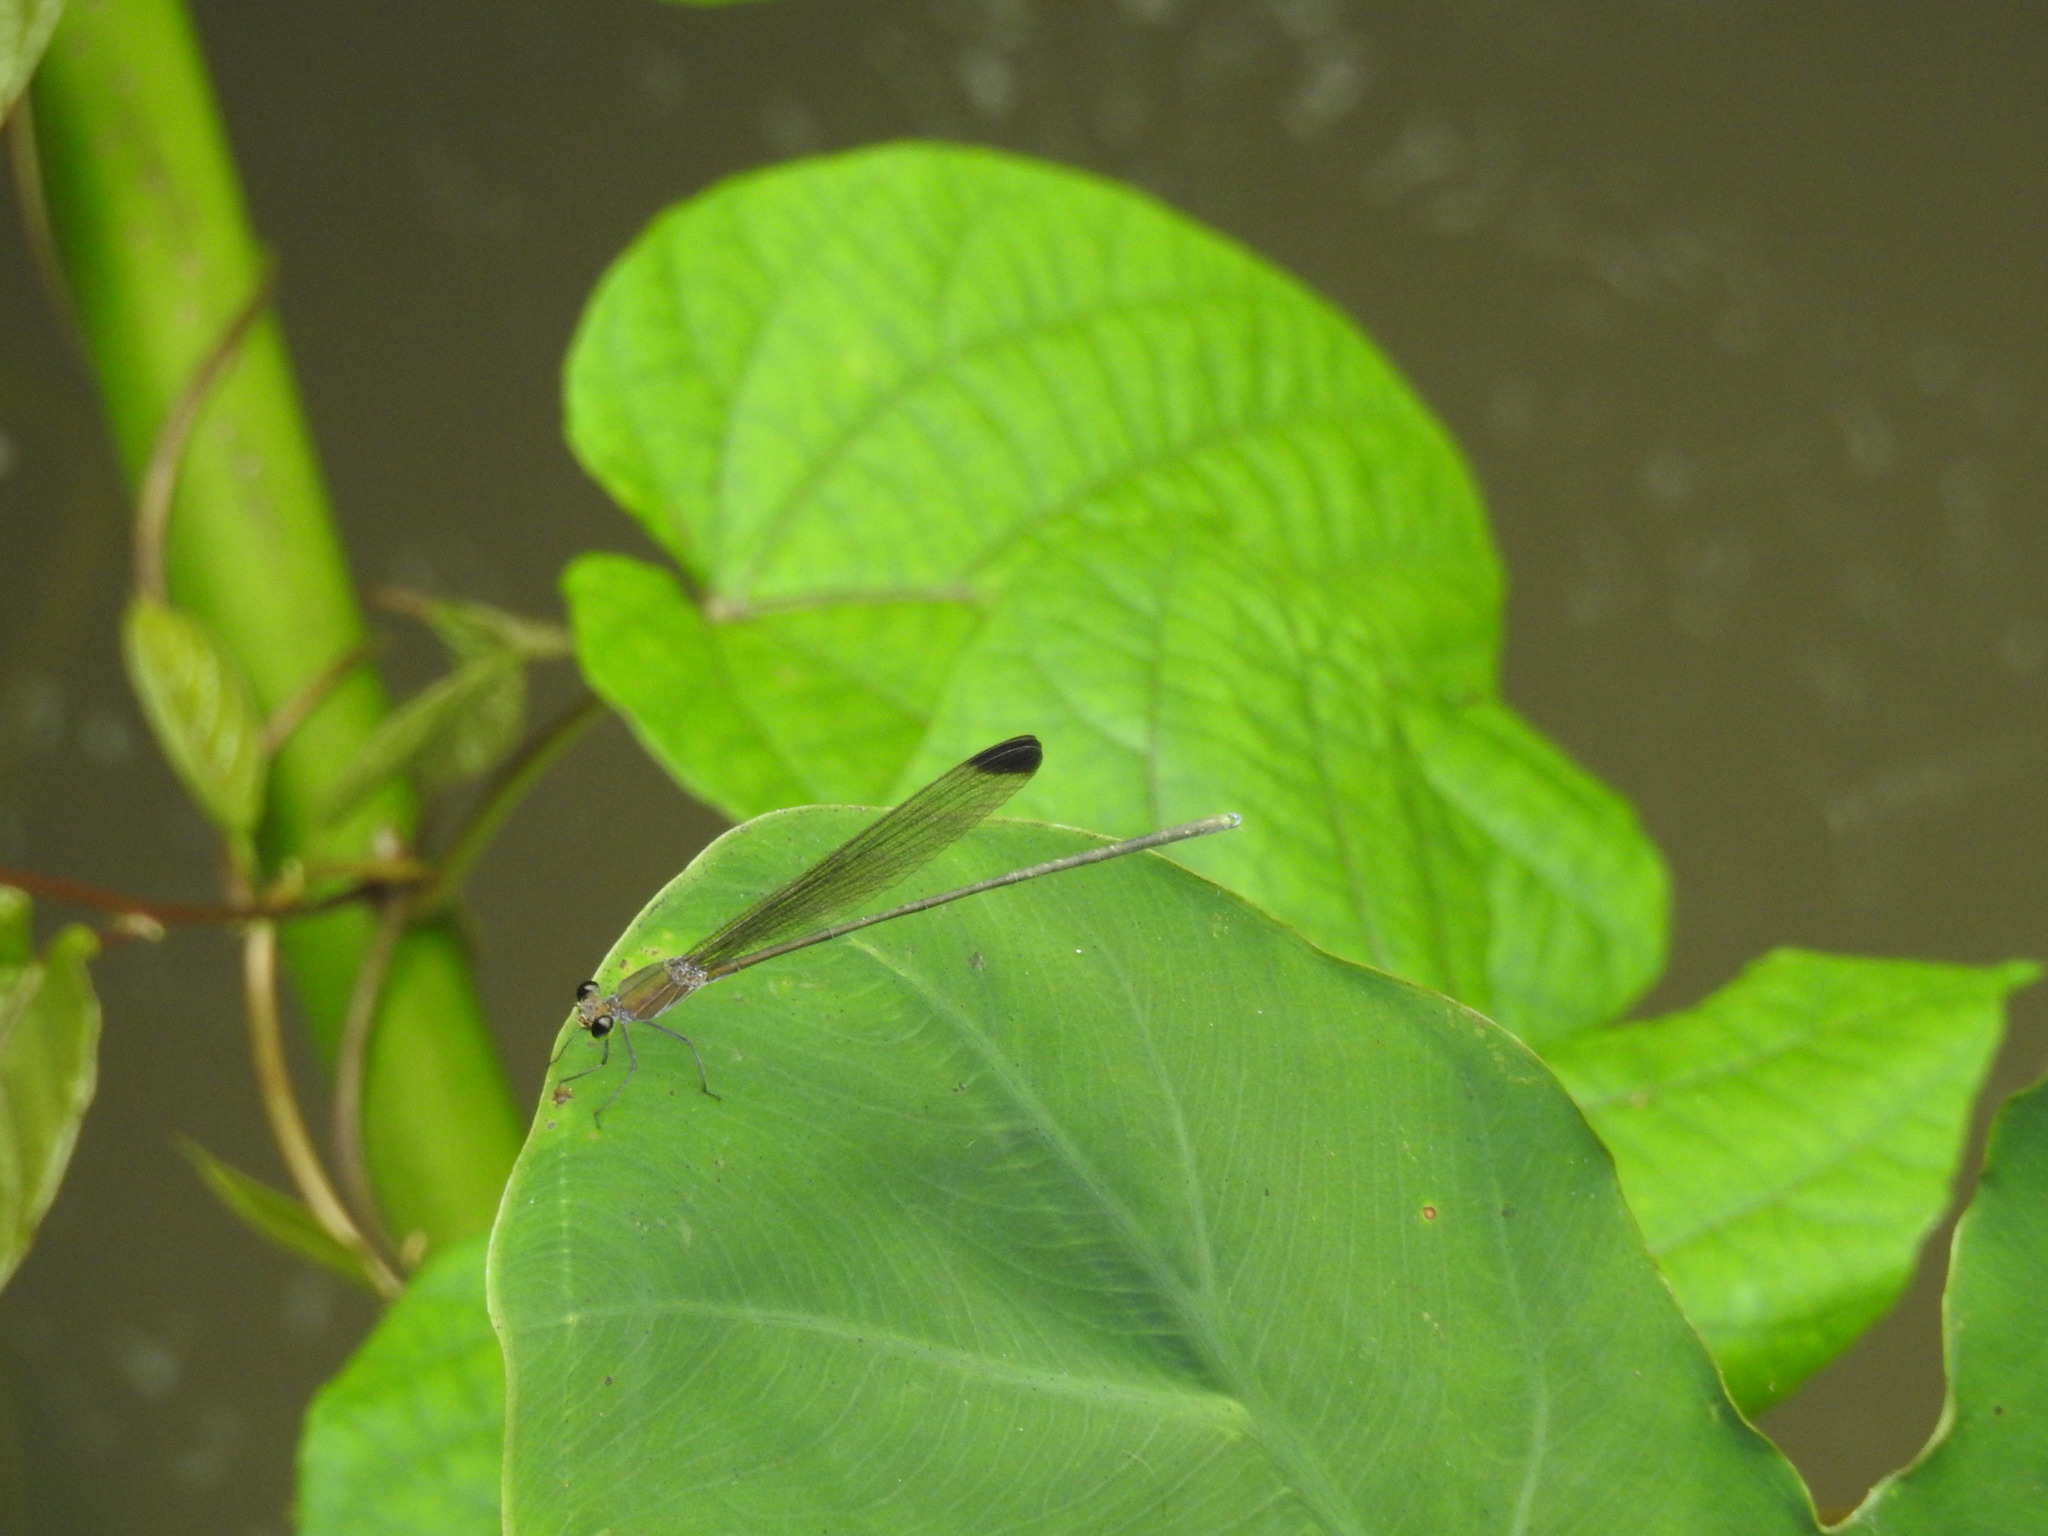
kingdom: Animalia
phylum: Arthropoda
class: Insecta
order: Odonata
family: Calopterygidae
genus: Vestalis
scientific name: Vestalis apicalis
